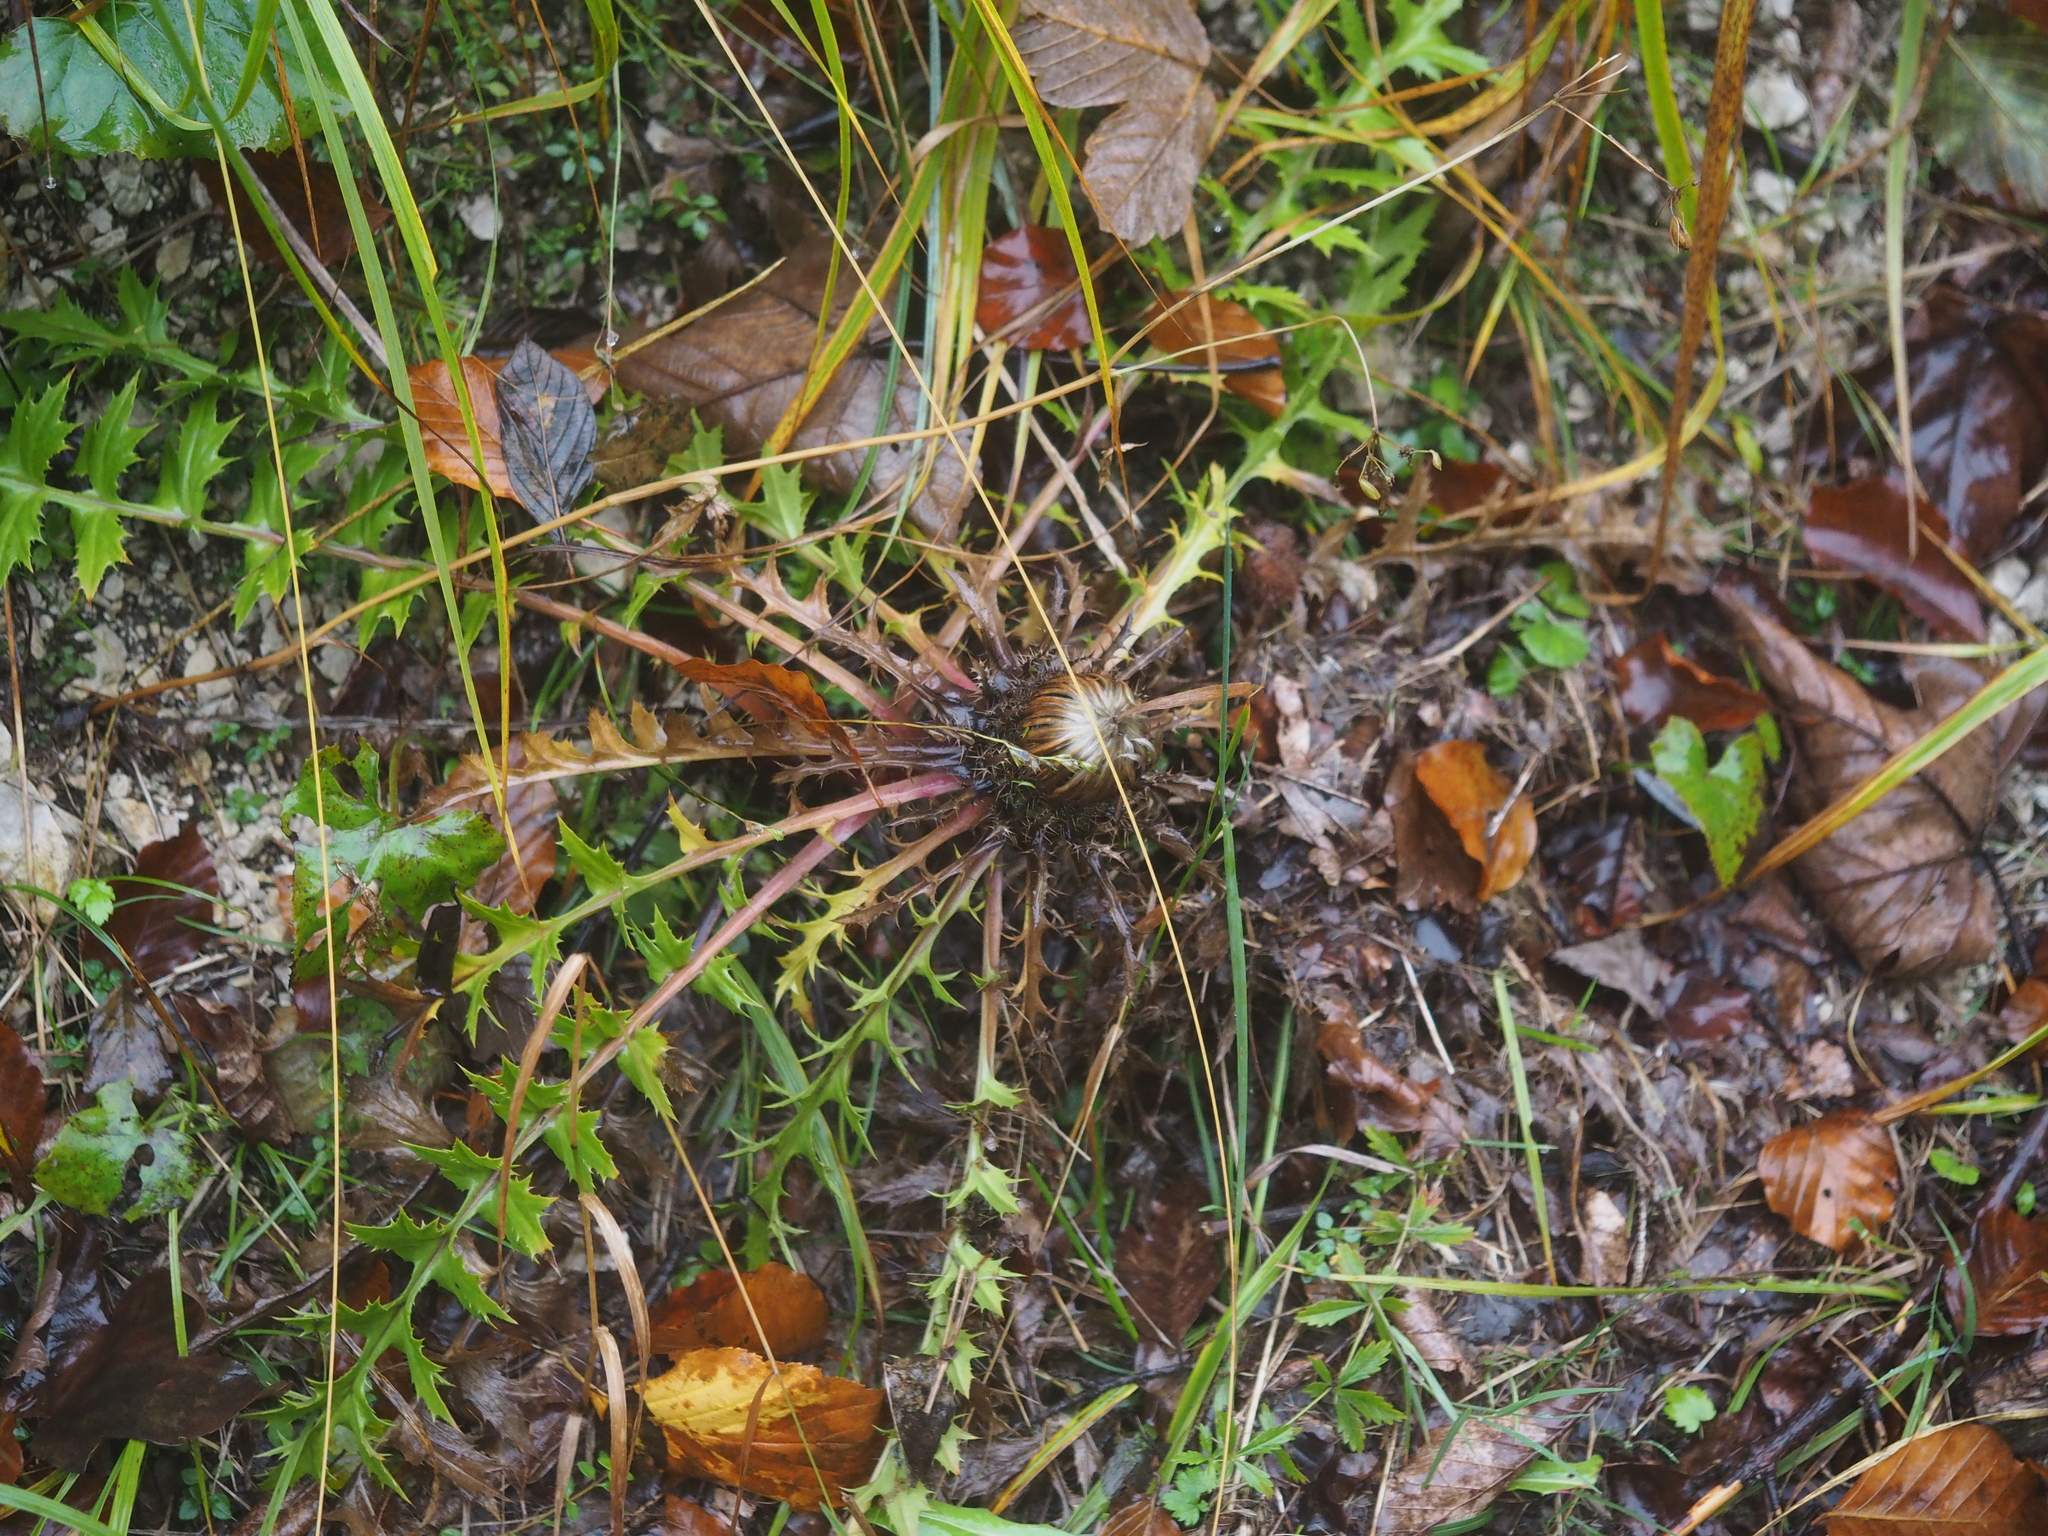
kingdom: Plantae
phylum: Tracheophyta
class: Magnoliopsida
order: Asterales
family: Asteraceae
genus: Carlina
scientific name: Carlina acaulis
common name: Stemless carline thistle
